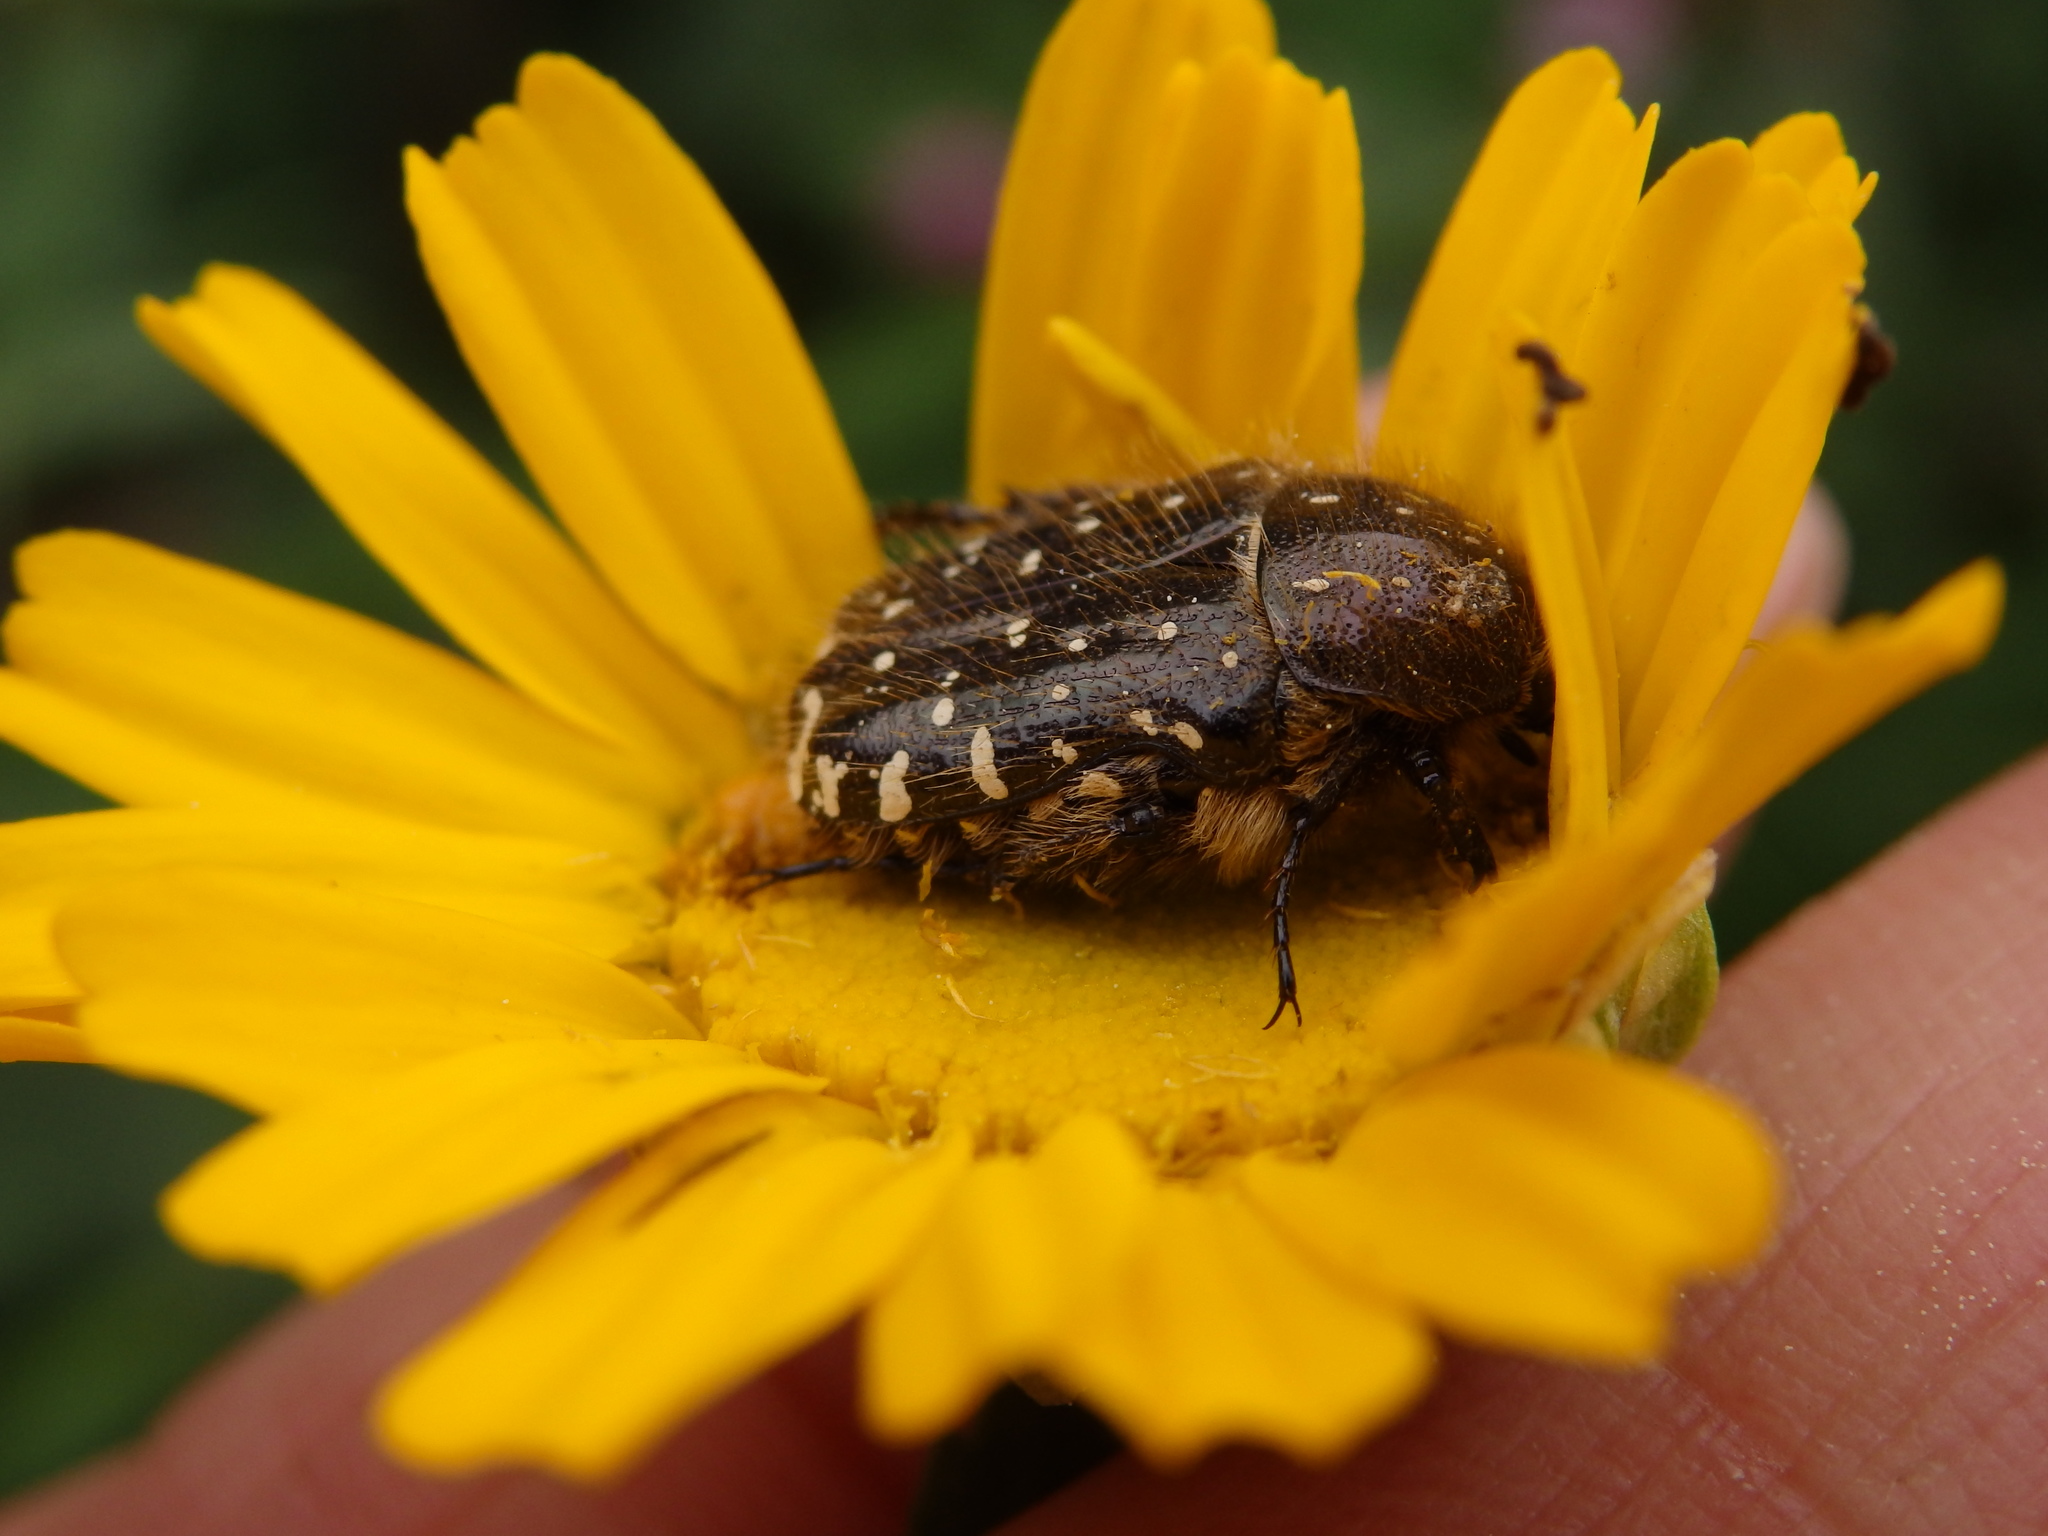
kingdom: Animalia
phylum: Arthropoda
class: Insecta
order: Coleoptera
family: Scarabaeidae
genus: Oxythyrea
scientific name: Oxythyrea funesta
